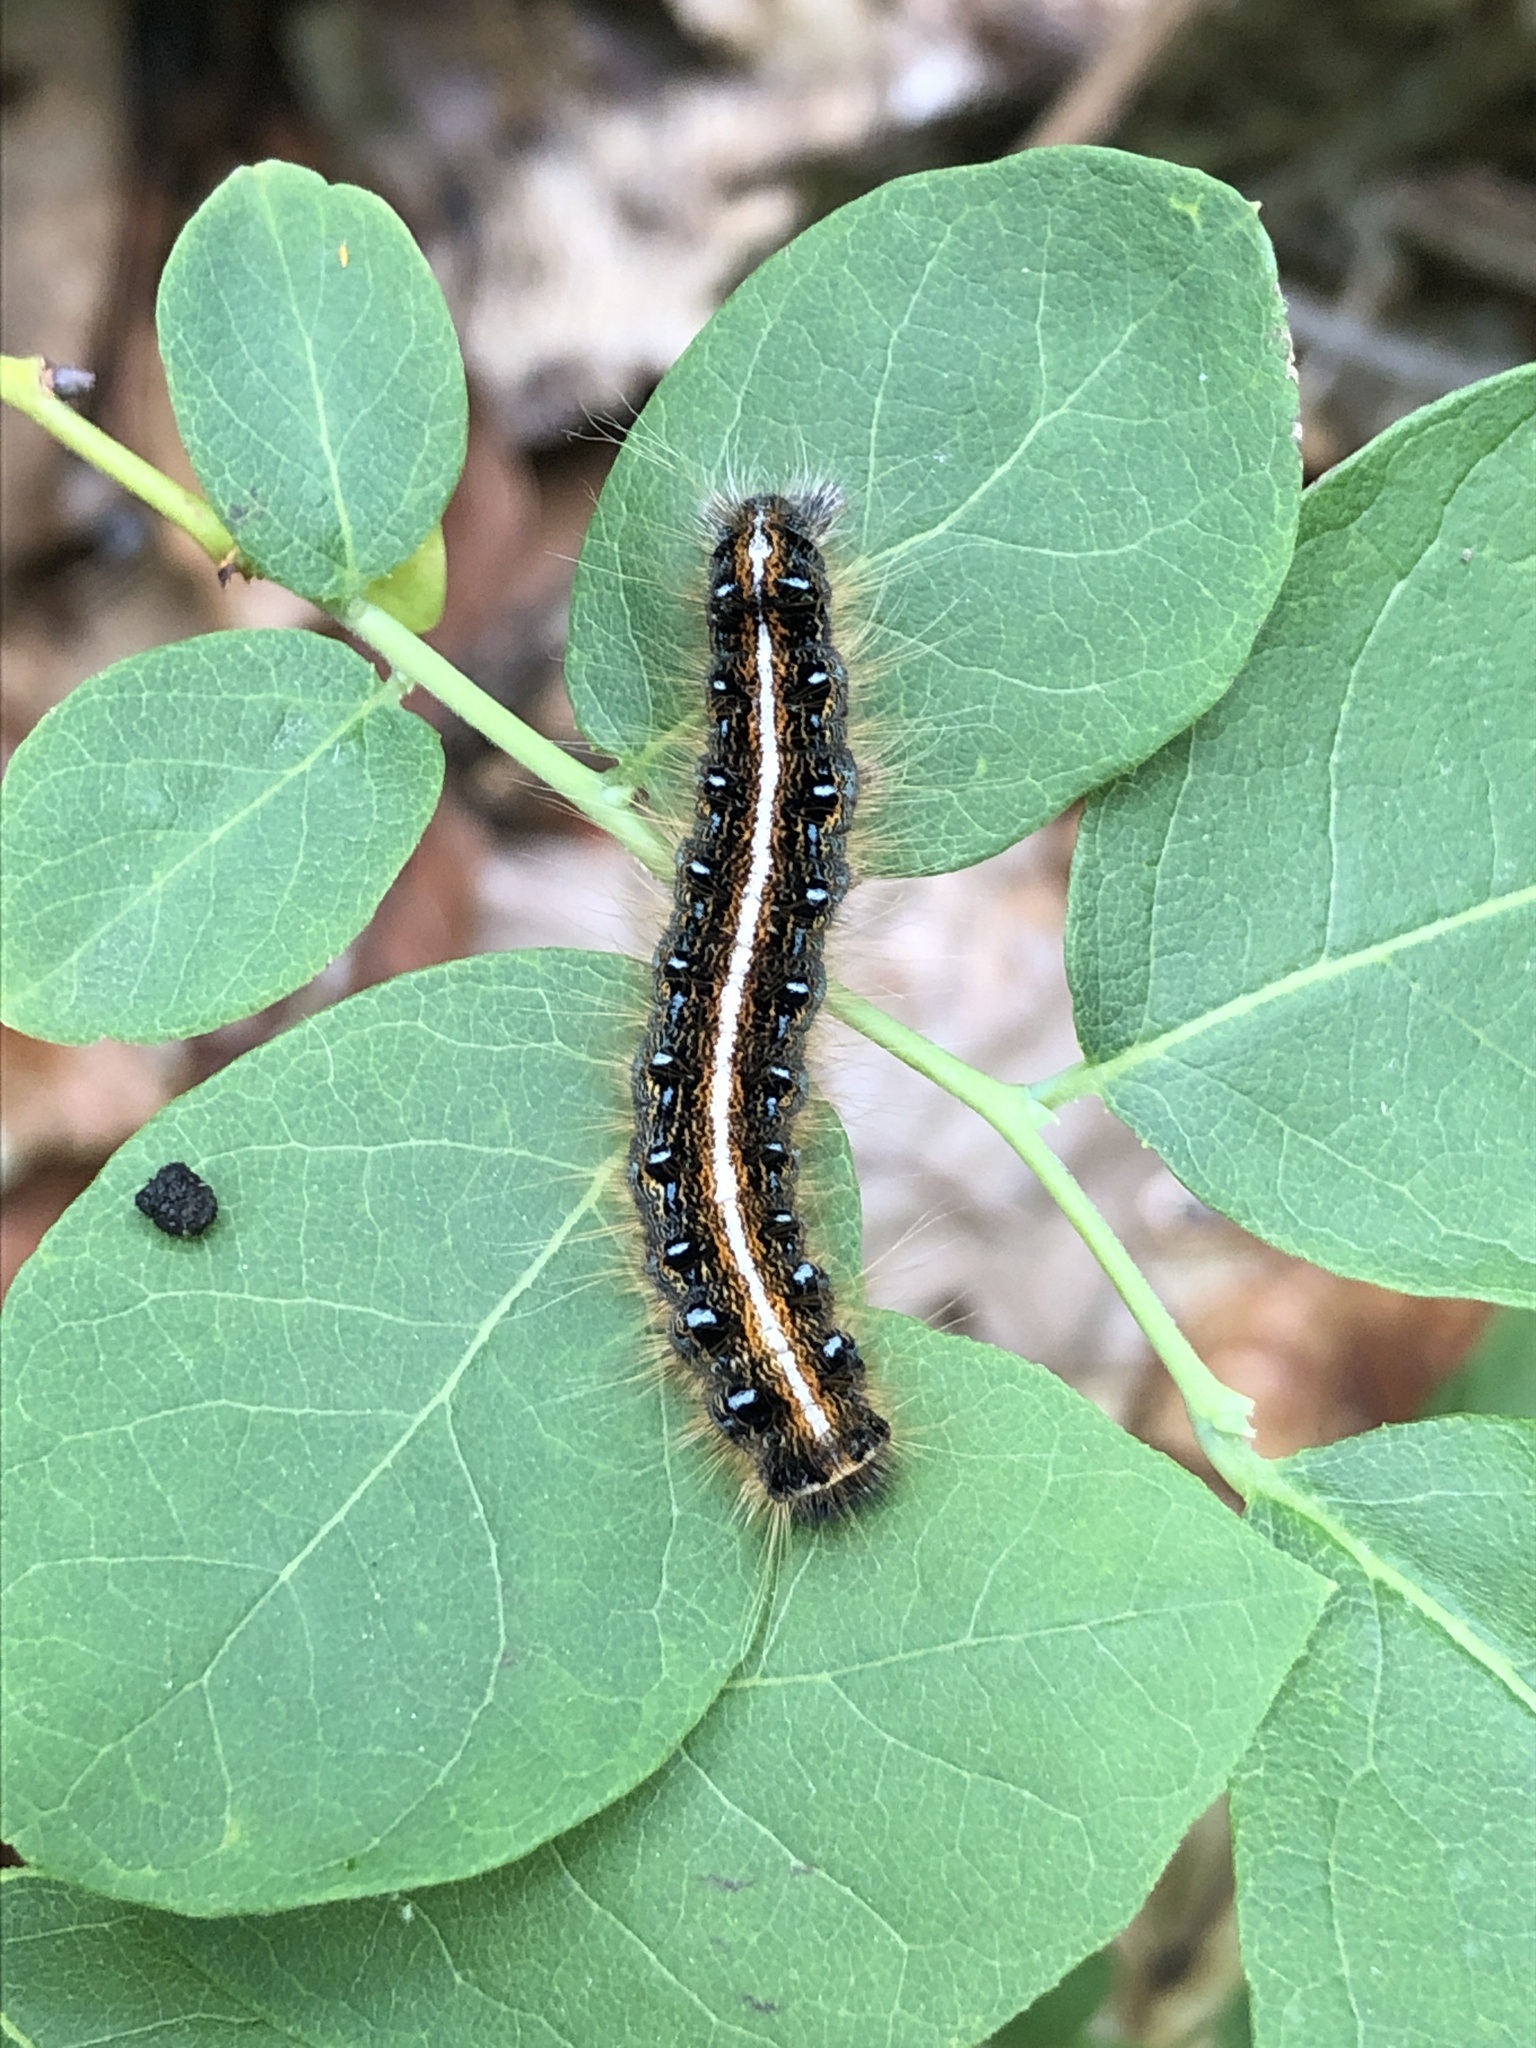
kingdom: Animalia
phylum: Arthropoda
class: Insecta
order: Lepidoptera
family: Lasiocampidae
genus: Malacosoma
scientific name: Malacosoma americana
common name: Eastern tent caterpillar moth
